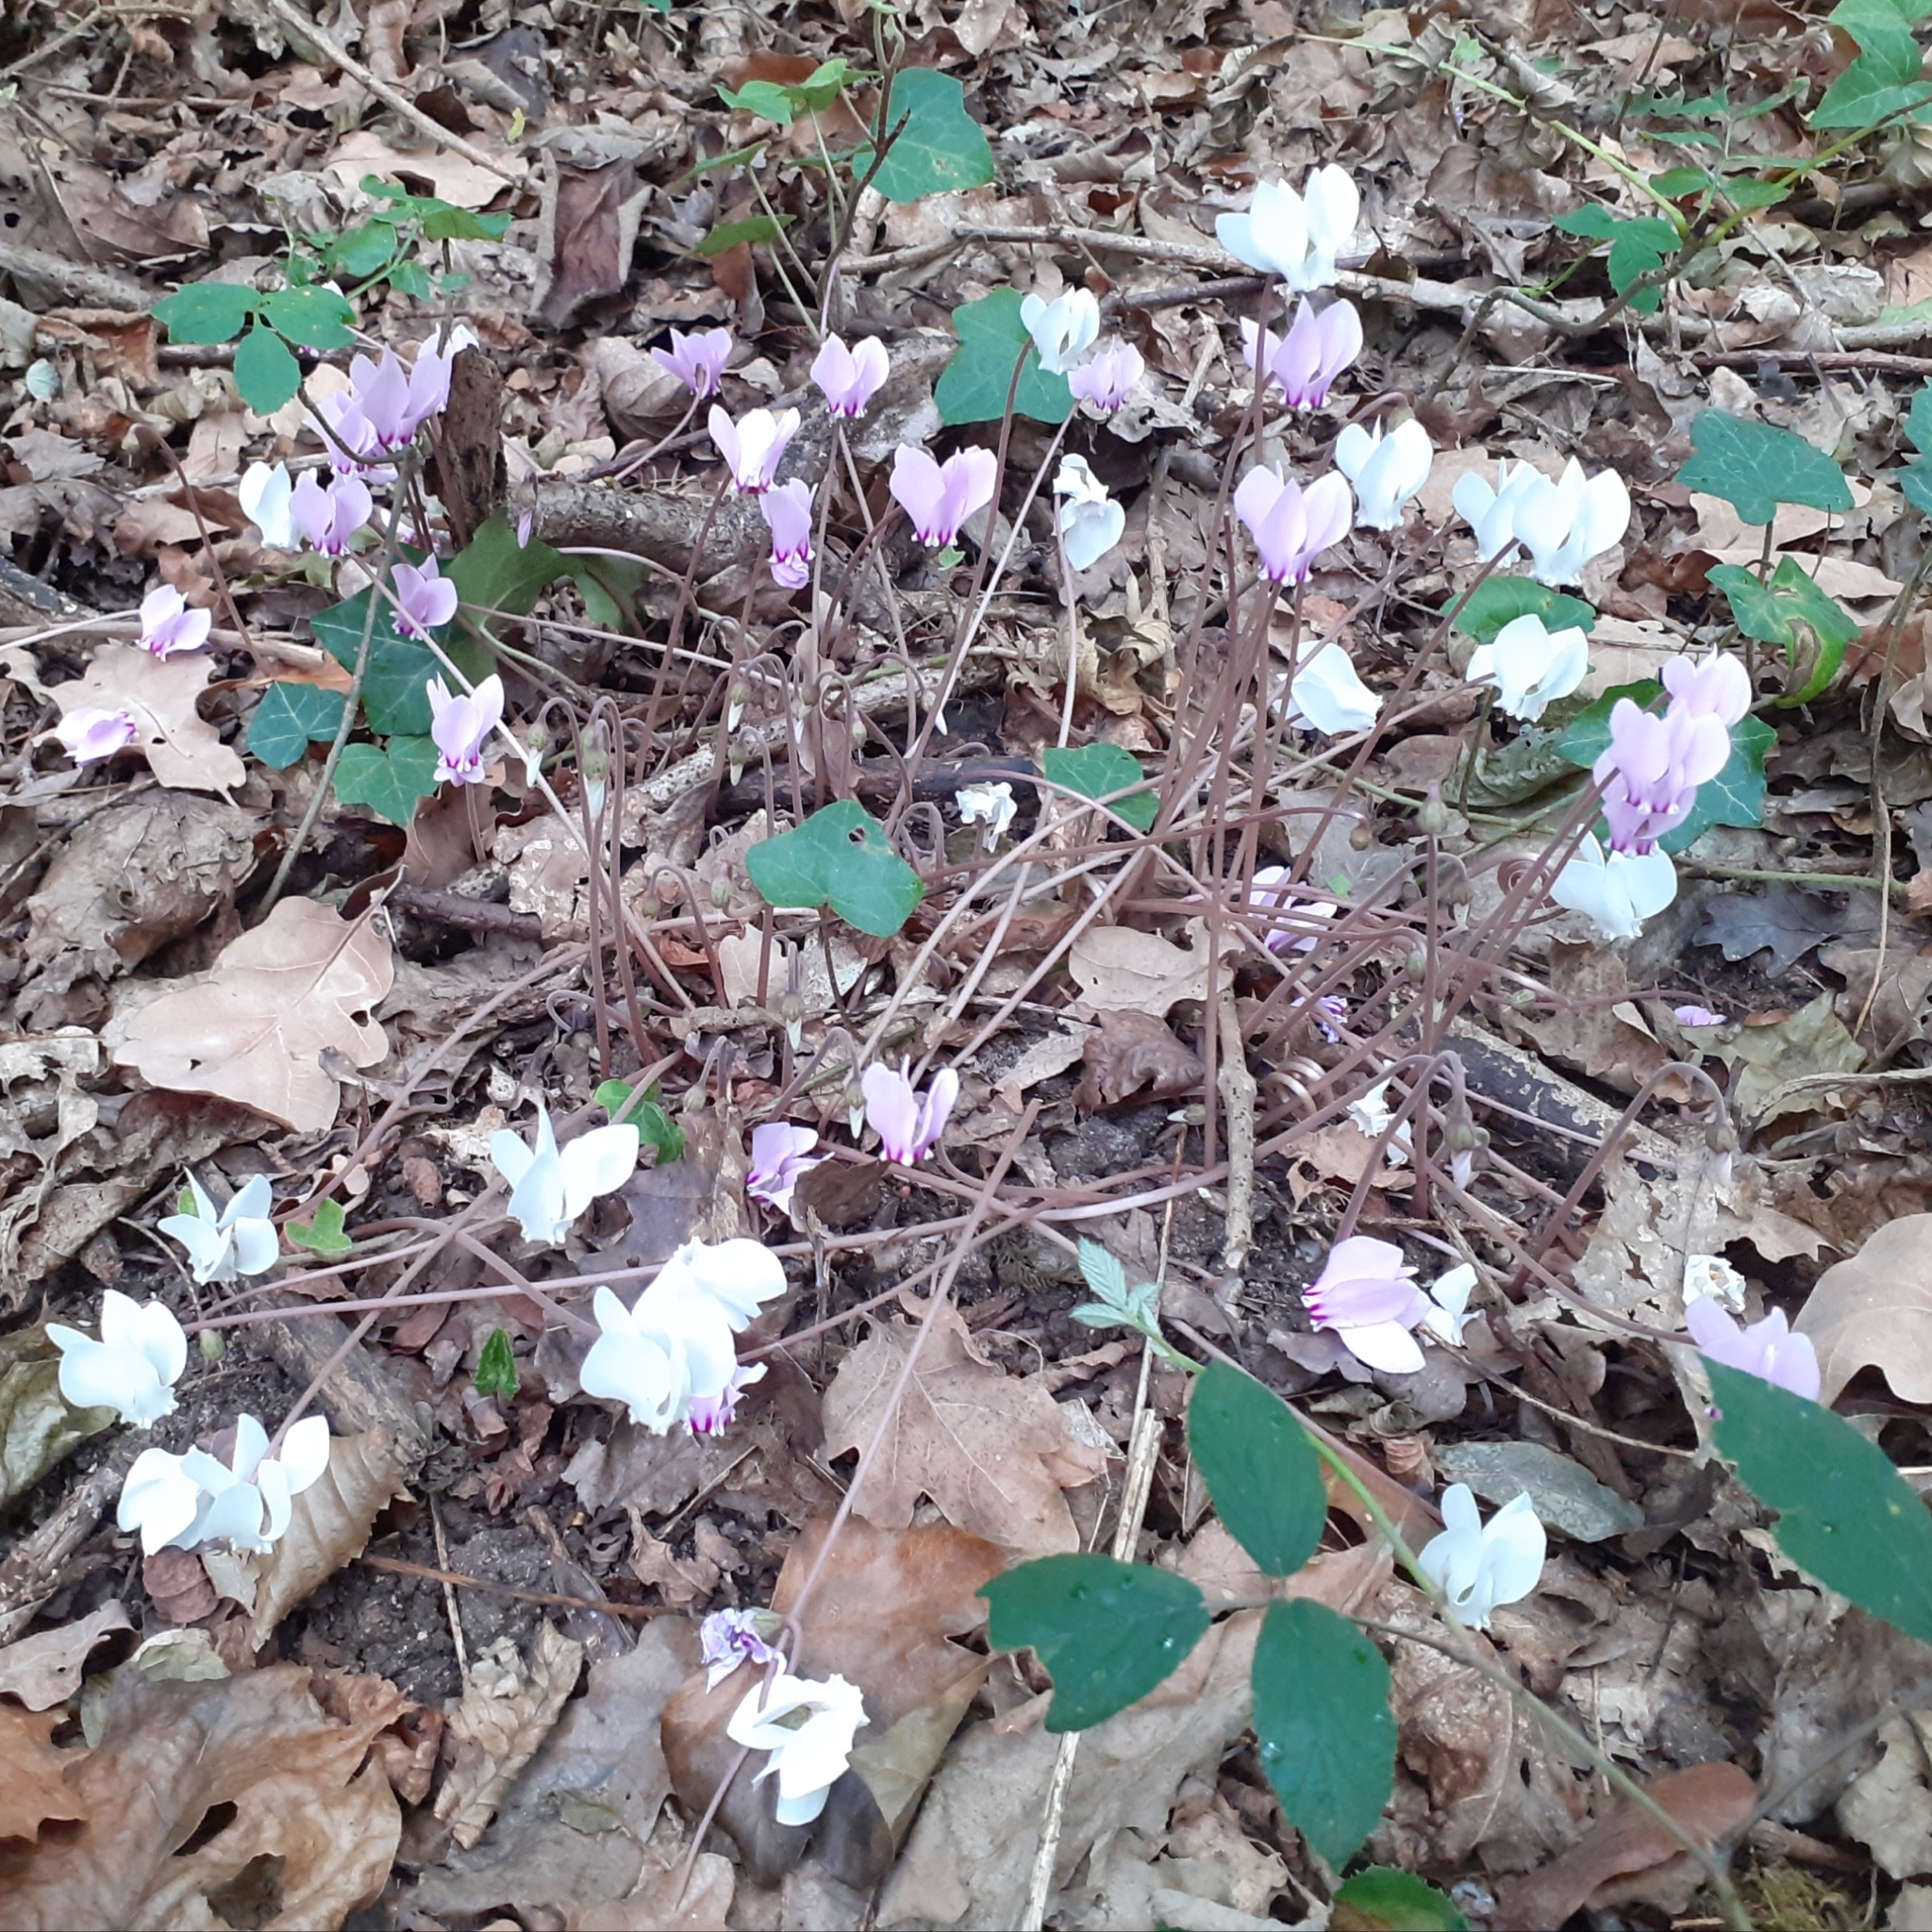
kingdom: Plantae
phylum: Tracheophyta
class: Magnoliopsida
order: Ericales
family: Primulaceae
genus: Cyclamen
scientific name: Cyclamen hederifolium
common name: Sowbread
